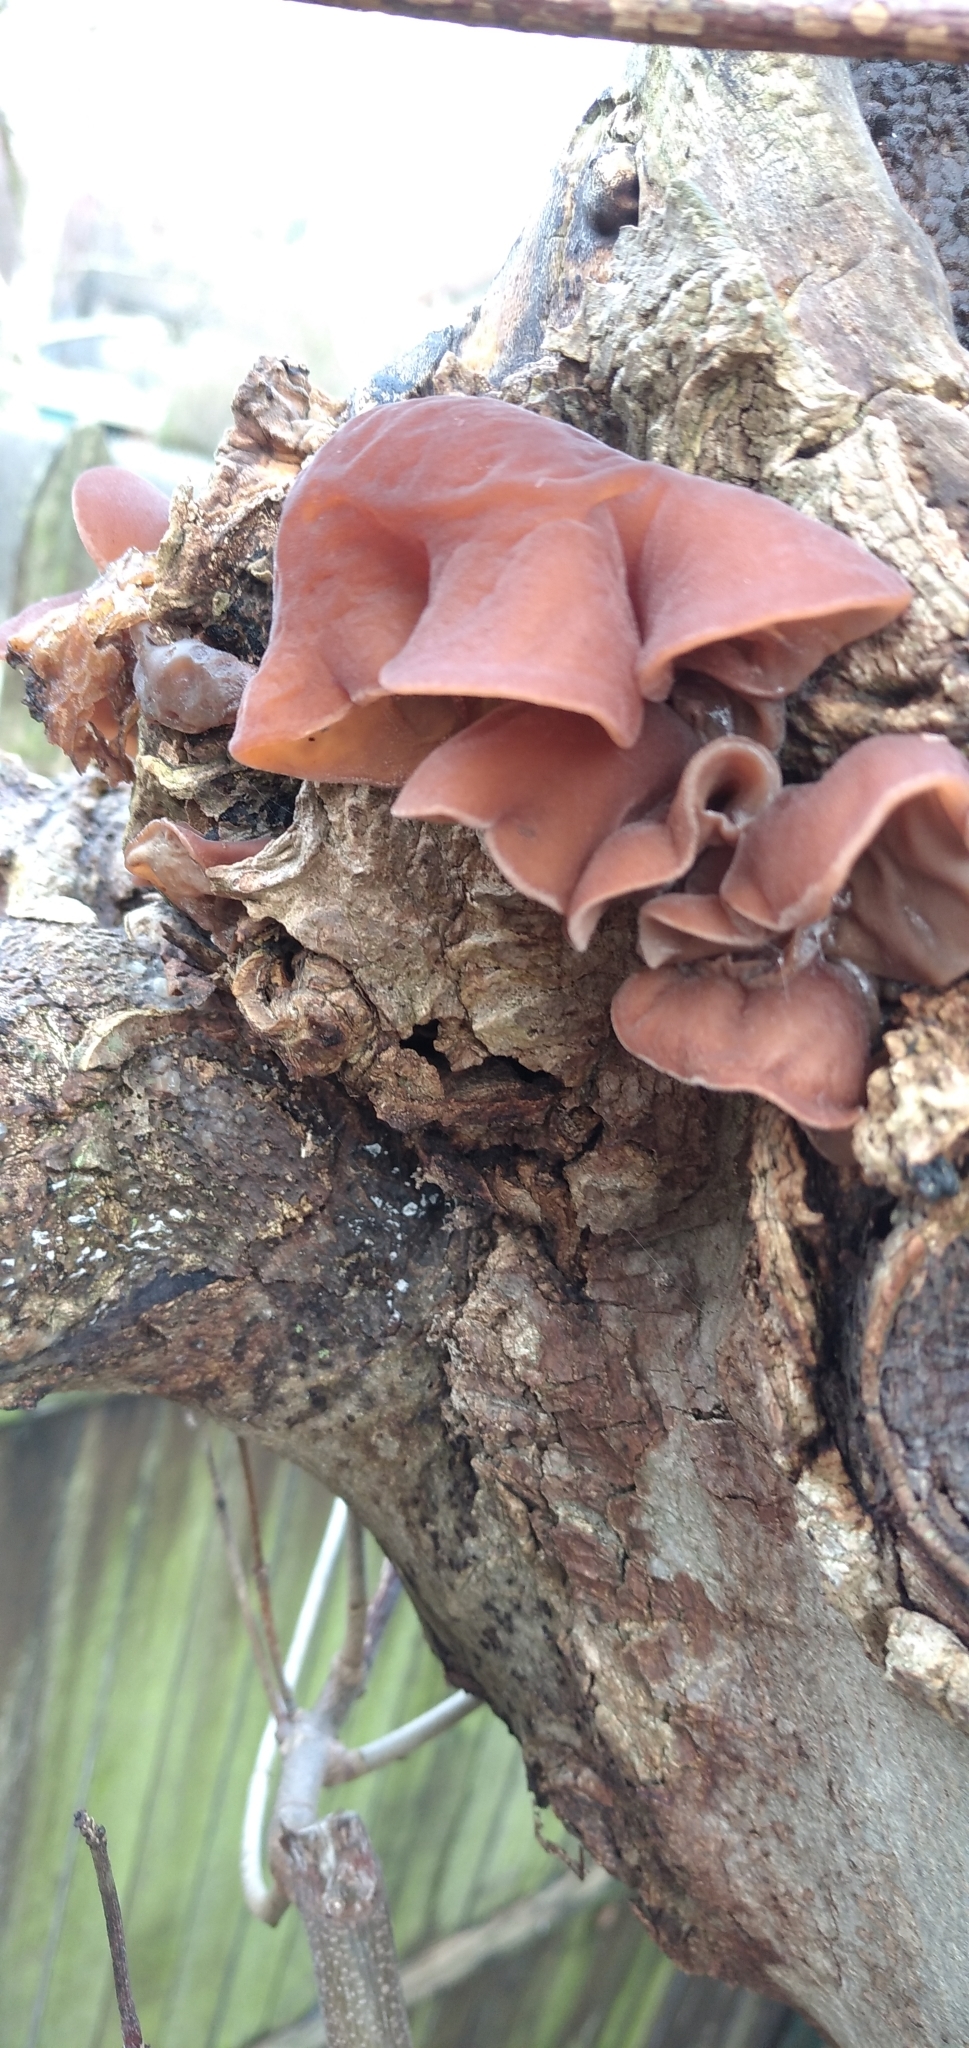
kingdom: Fungi
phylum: Basidiomycota
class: Agaricomycetes
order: Auriculariales
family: Auriculariaceae
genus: Auricularia
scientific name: Auricularia auricula-judae
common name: Jelly ear
